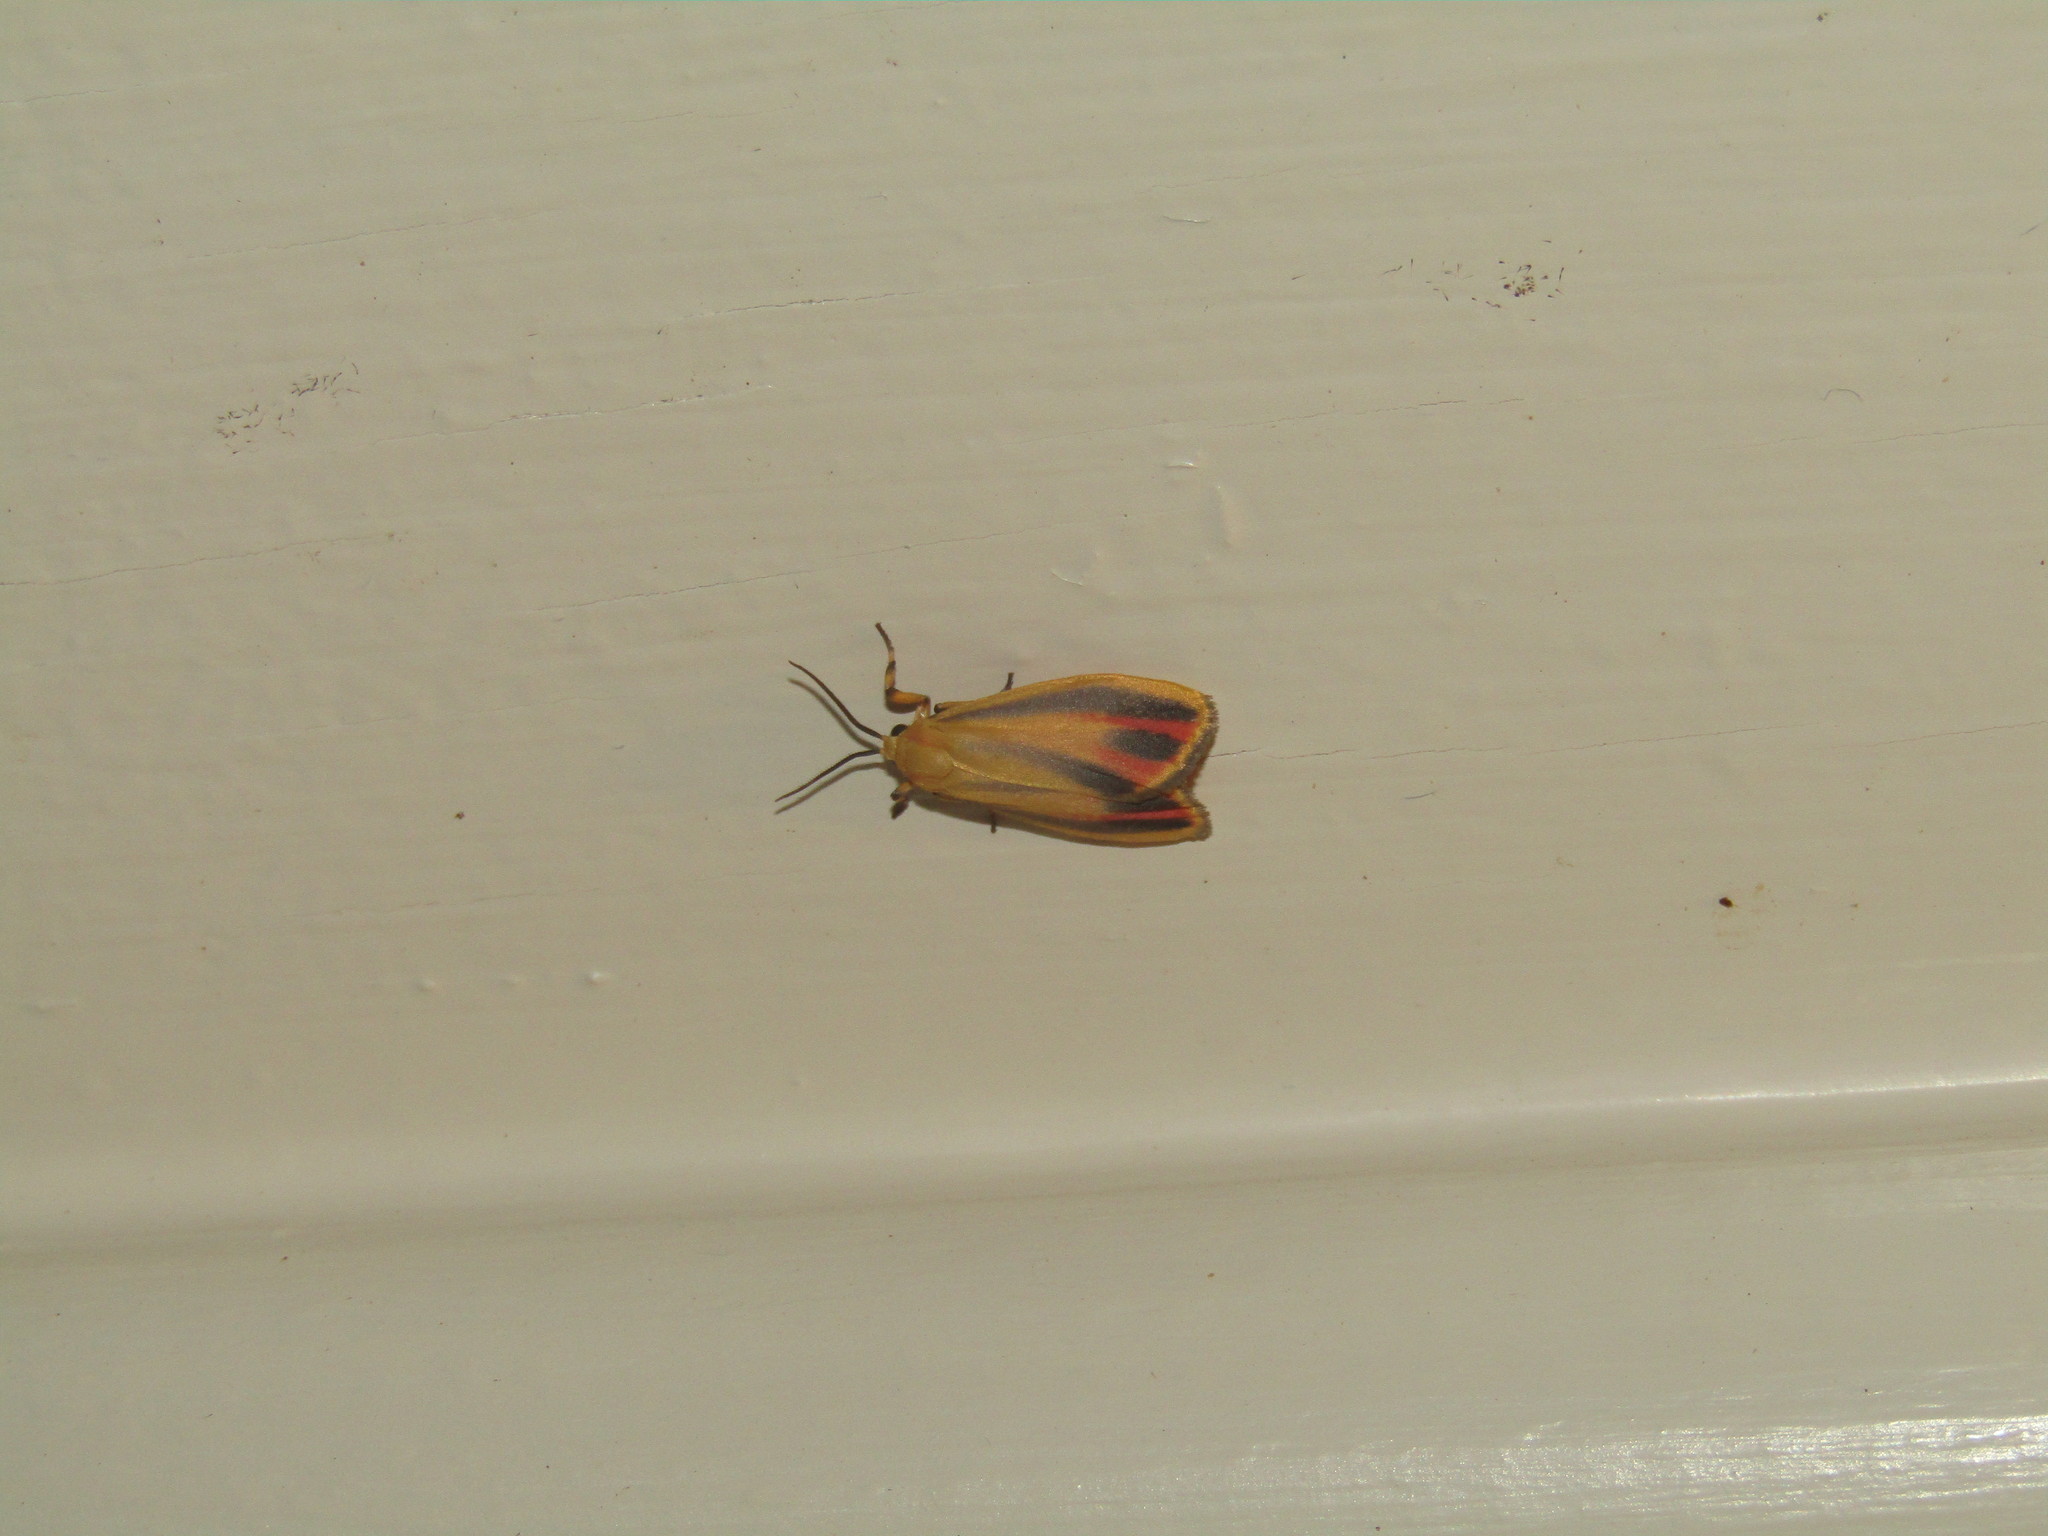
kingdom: Animalia
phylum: Arthropoda
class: Insecta
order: Lepidoptera
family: Erebidae
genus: Hypoprepia
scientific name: Hypoprepia fucosa
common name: Painted lichen moth
